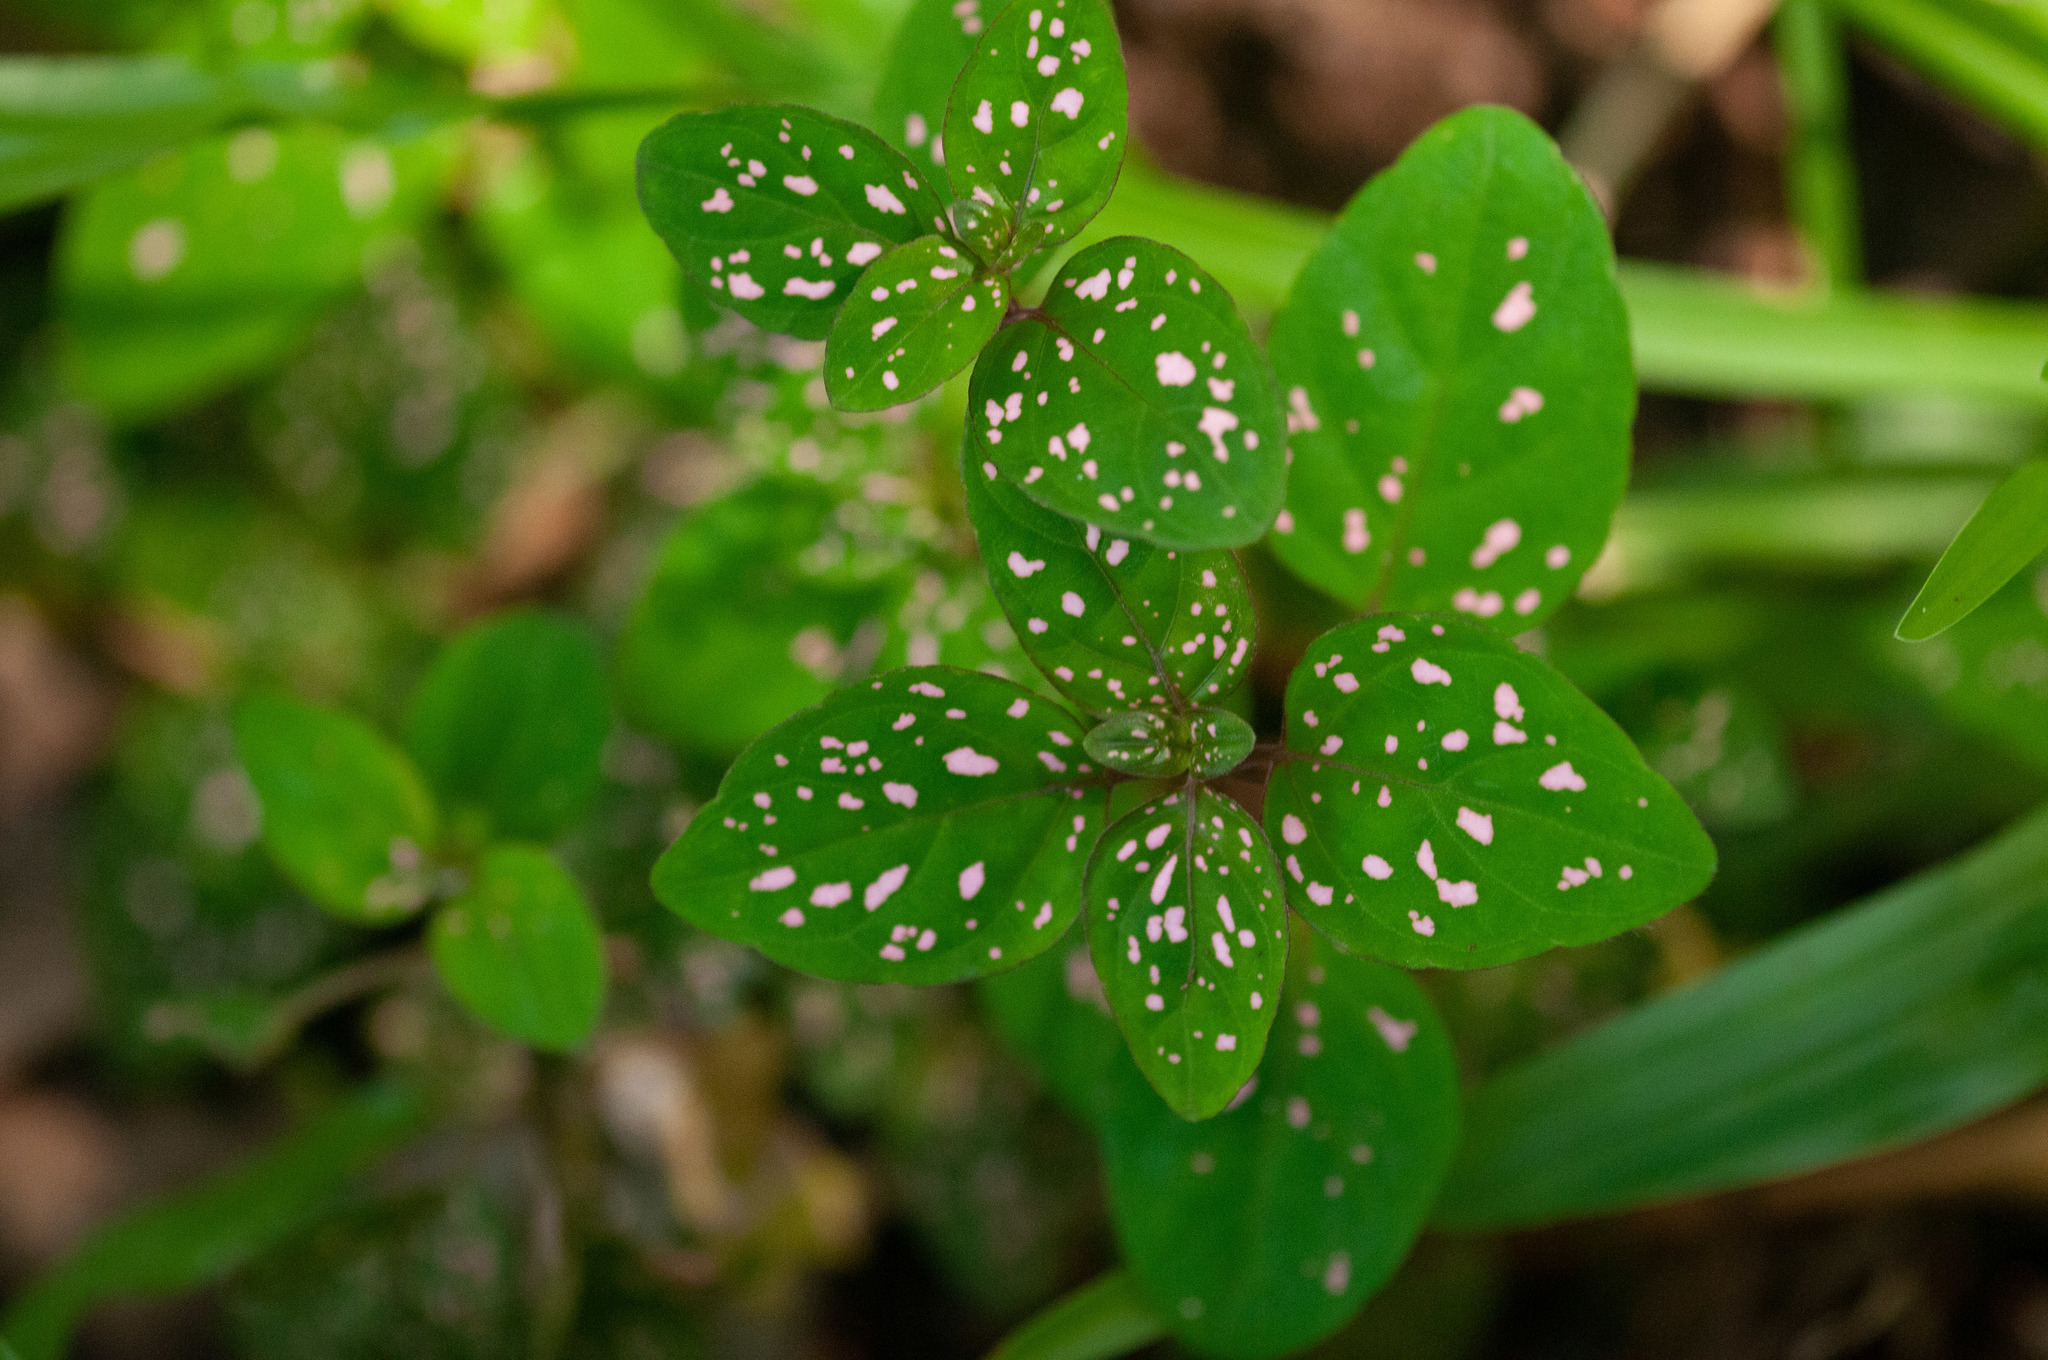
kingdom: Plantae
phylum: Tracheophyta
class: Magnoliopsida
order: Lamiales
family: Acanthaceae
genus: Hypoestes
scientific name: Hypoestes phyllostachya
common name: Polkadot-plant
